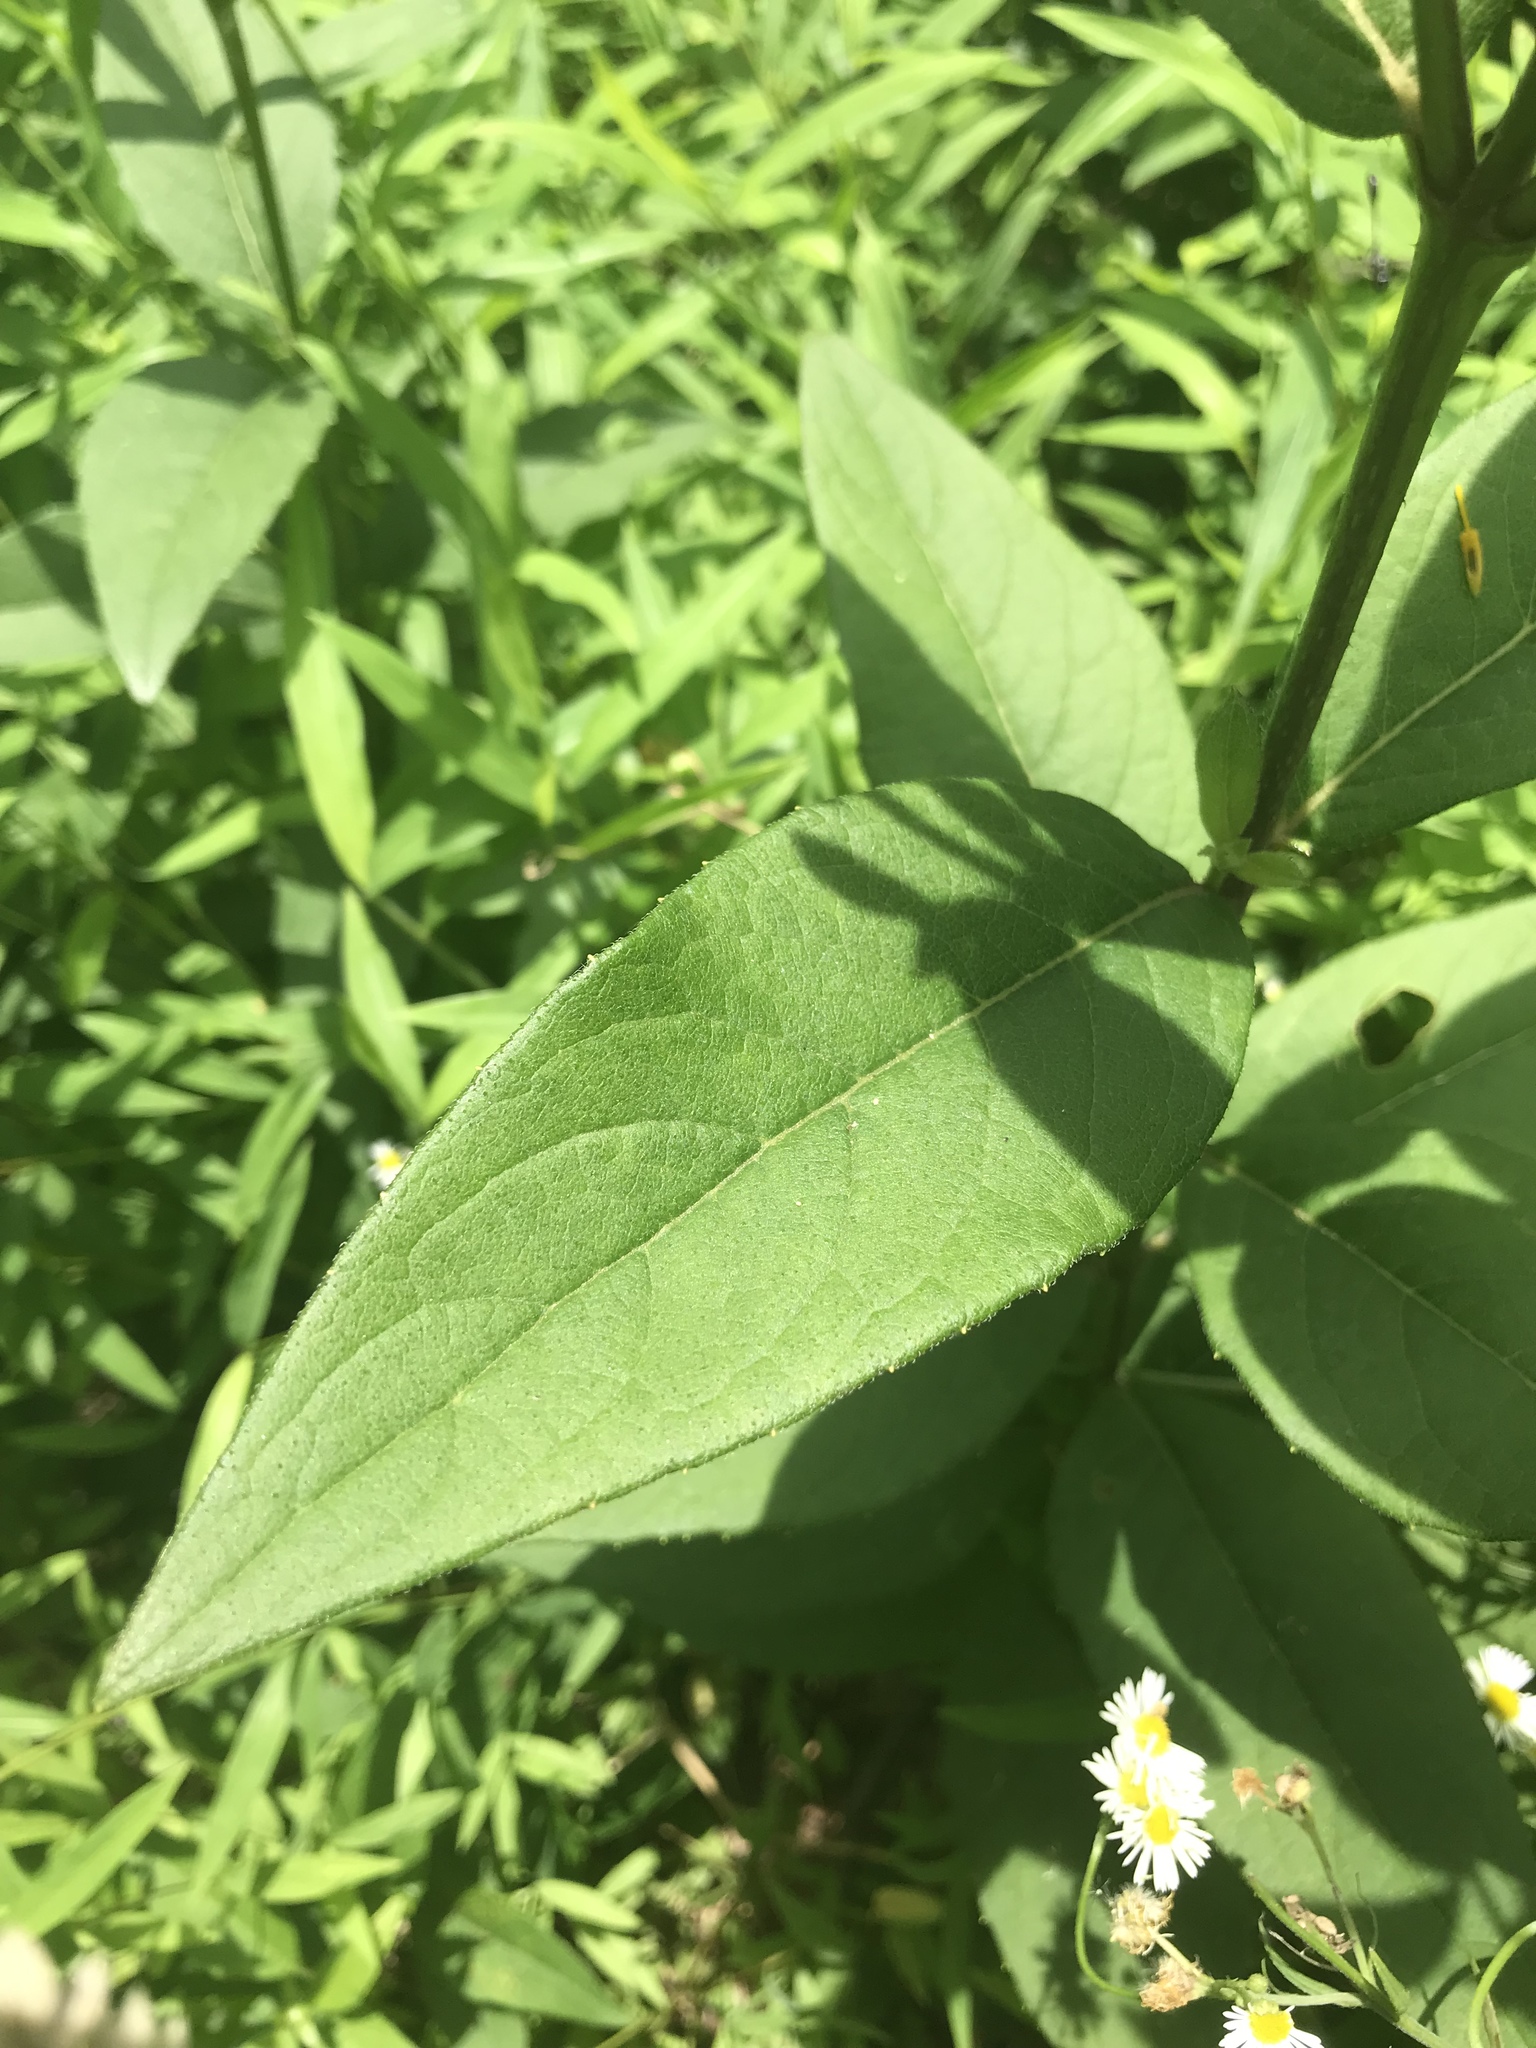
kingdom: Plantae
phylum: Tracheophyta
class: Magnoliopsida
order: Asterales
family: Asteraceae
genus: Silphium
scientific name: Silphium asteriscus
